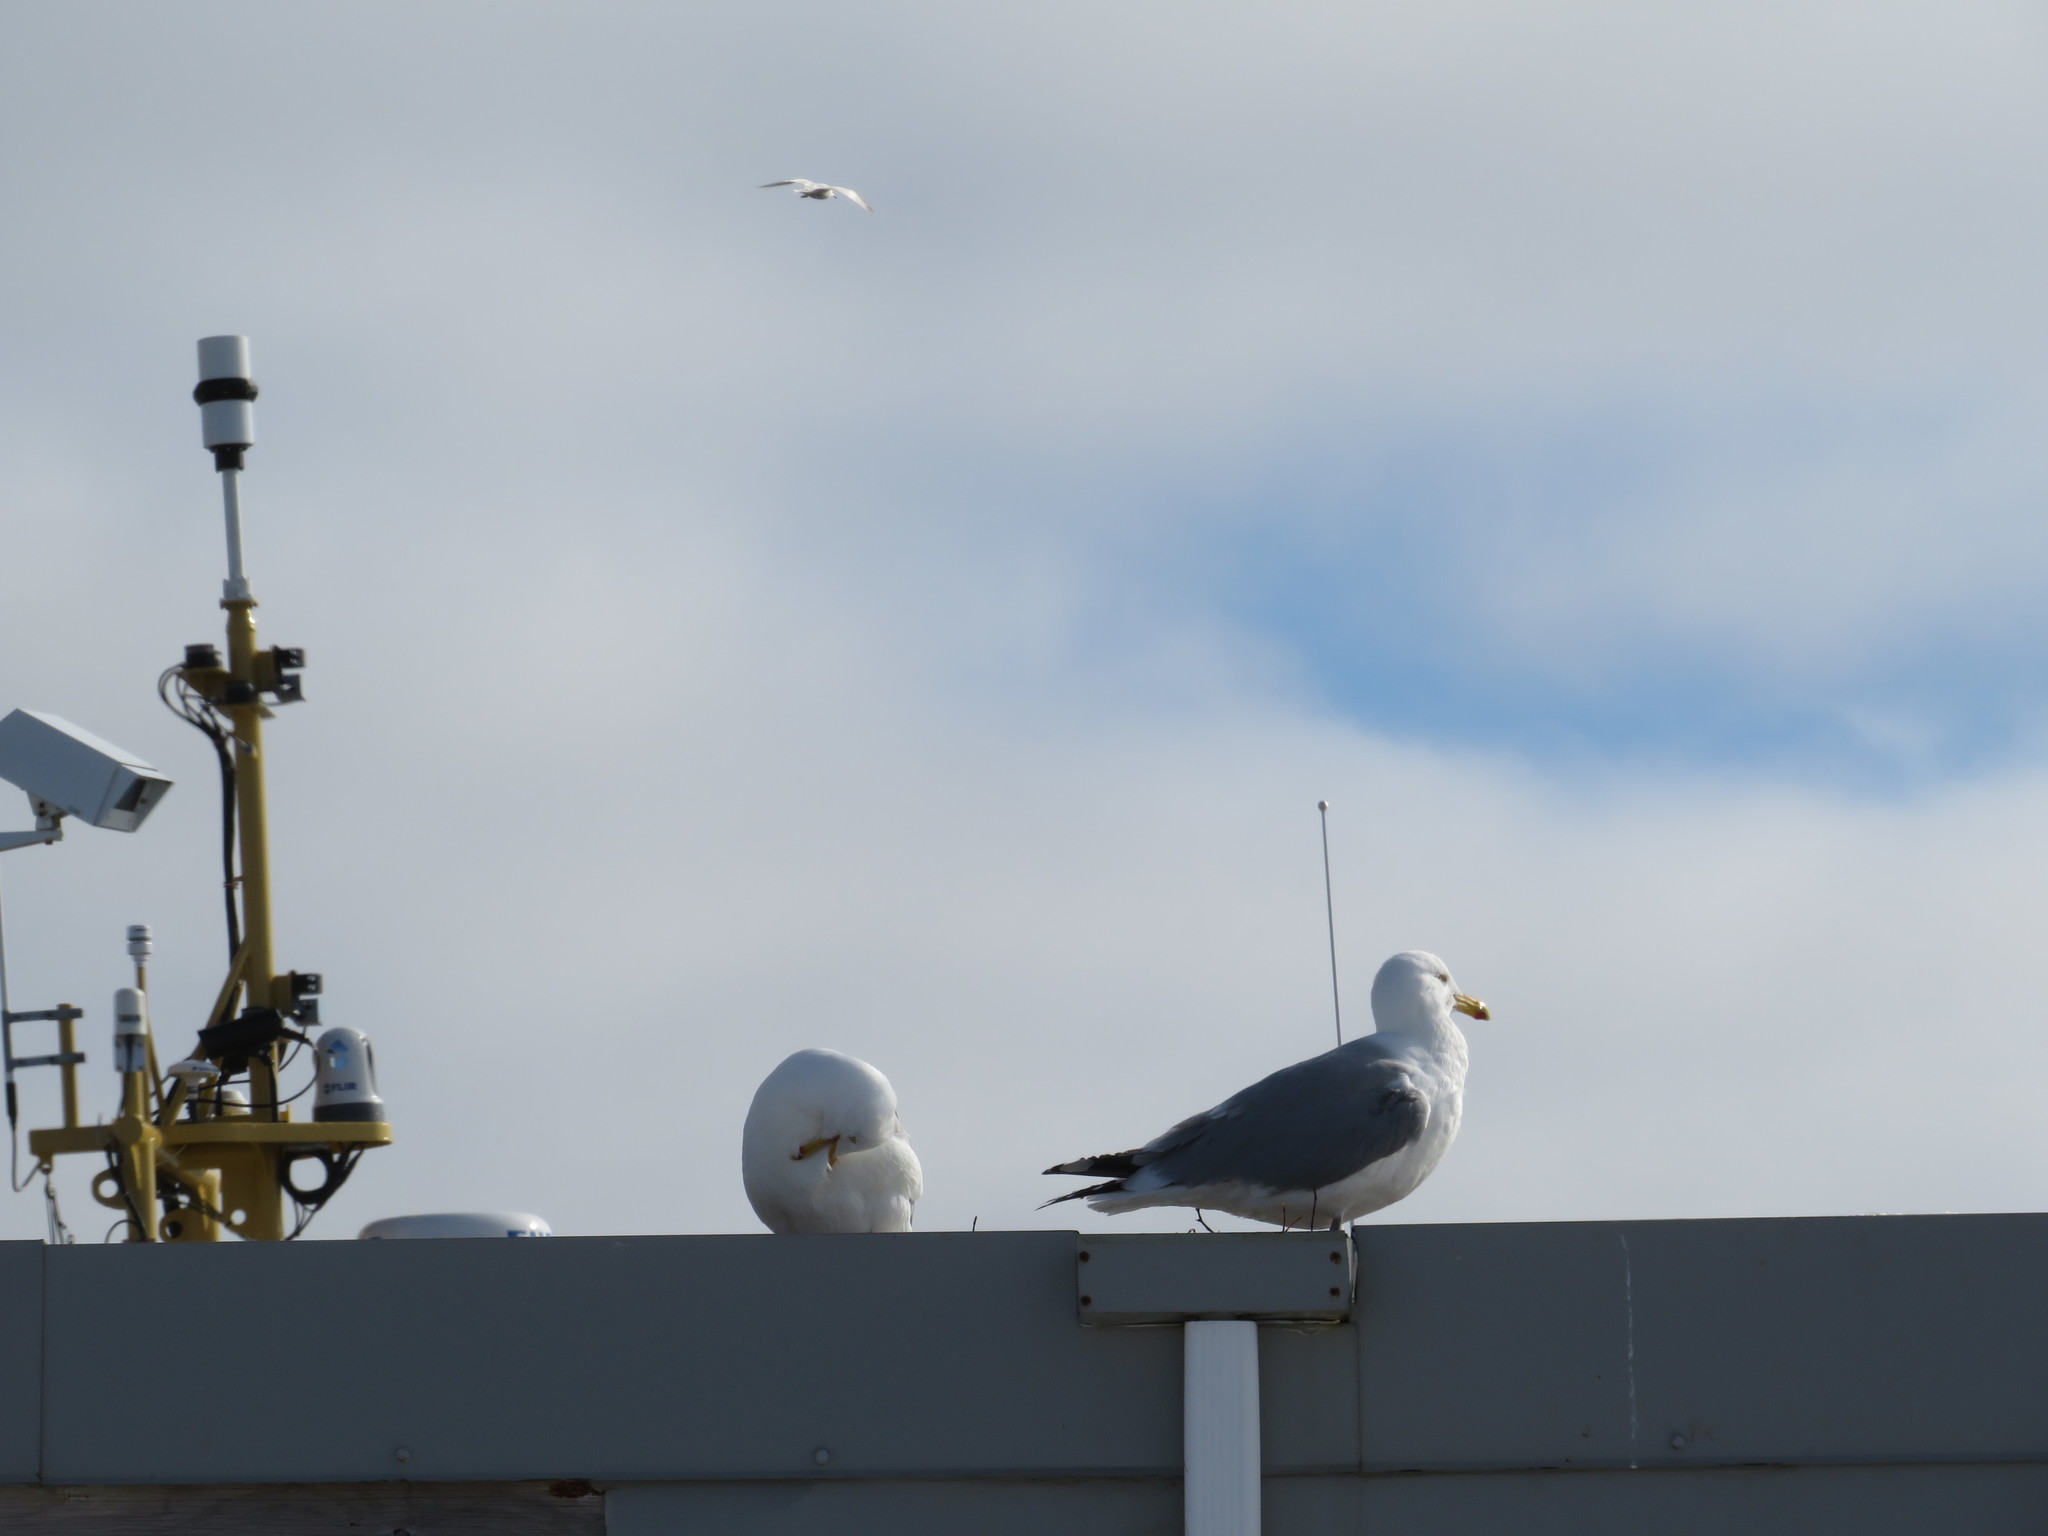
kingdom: Animalia
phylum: Chordata
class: Aves
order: Charadriiformes
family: Laridae
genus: Larus
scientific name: Larus argentatus
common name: Herring gull
